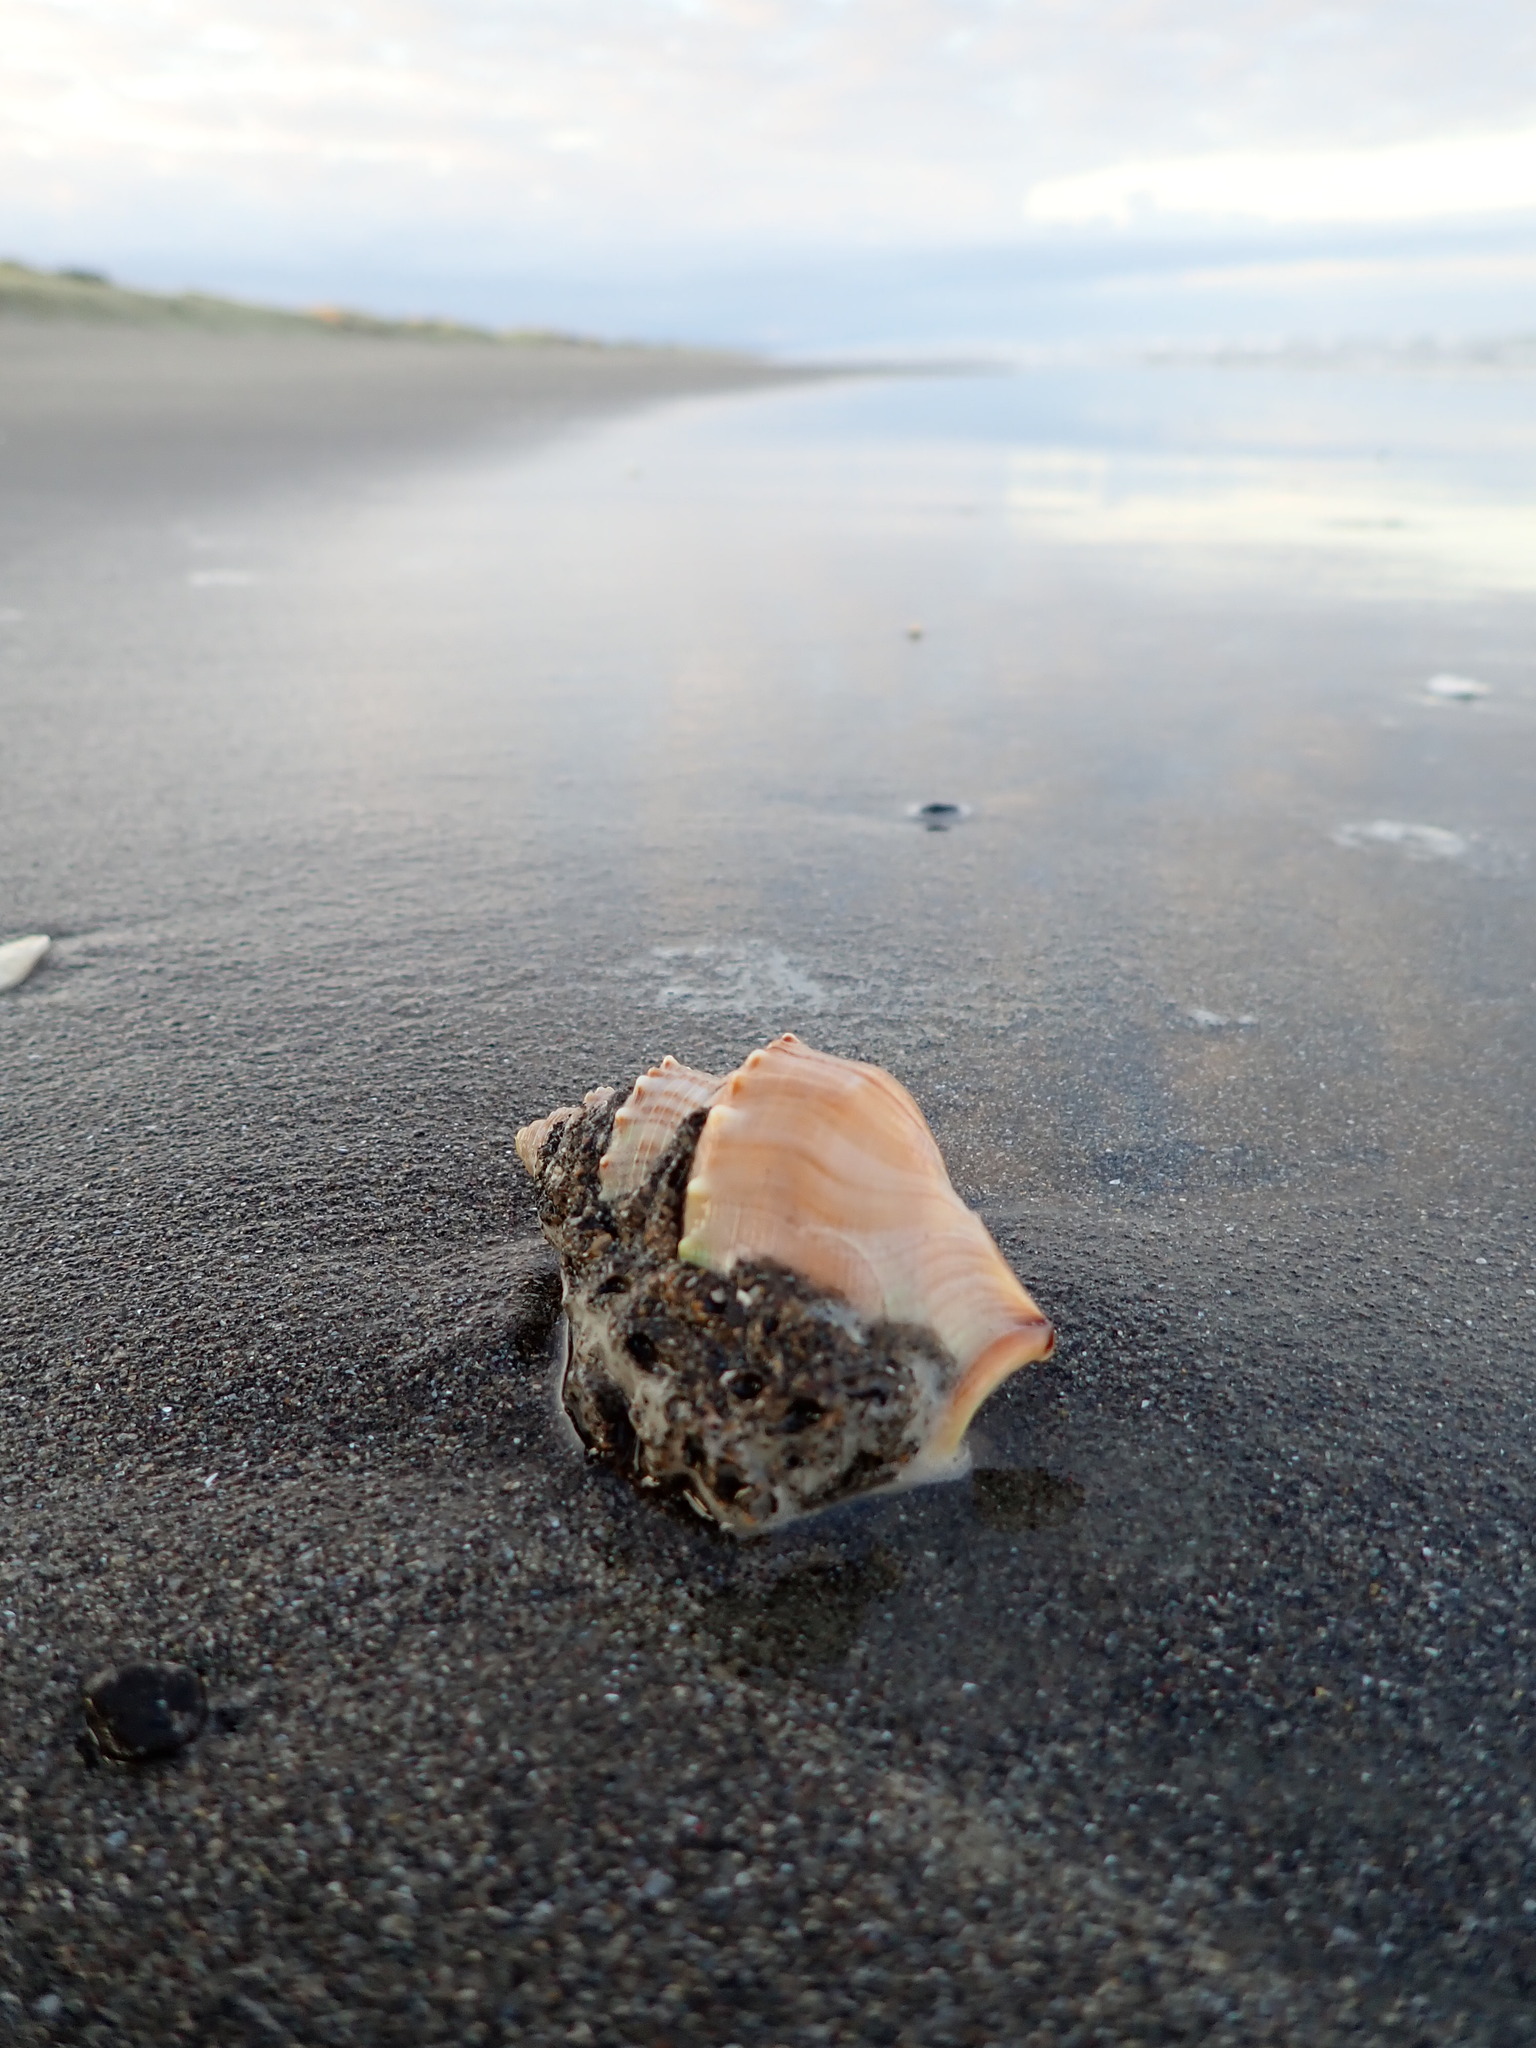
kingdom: Animalia
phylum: Mollusca
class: Gastropoda
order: Littorinimorpha
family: Struthiolariidae
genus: Struthiolaria
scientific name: Struthiolaria papulosa
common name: Large ostrich foot
